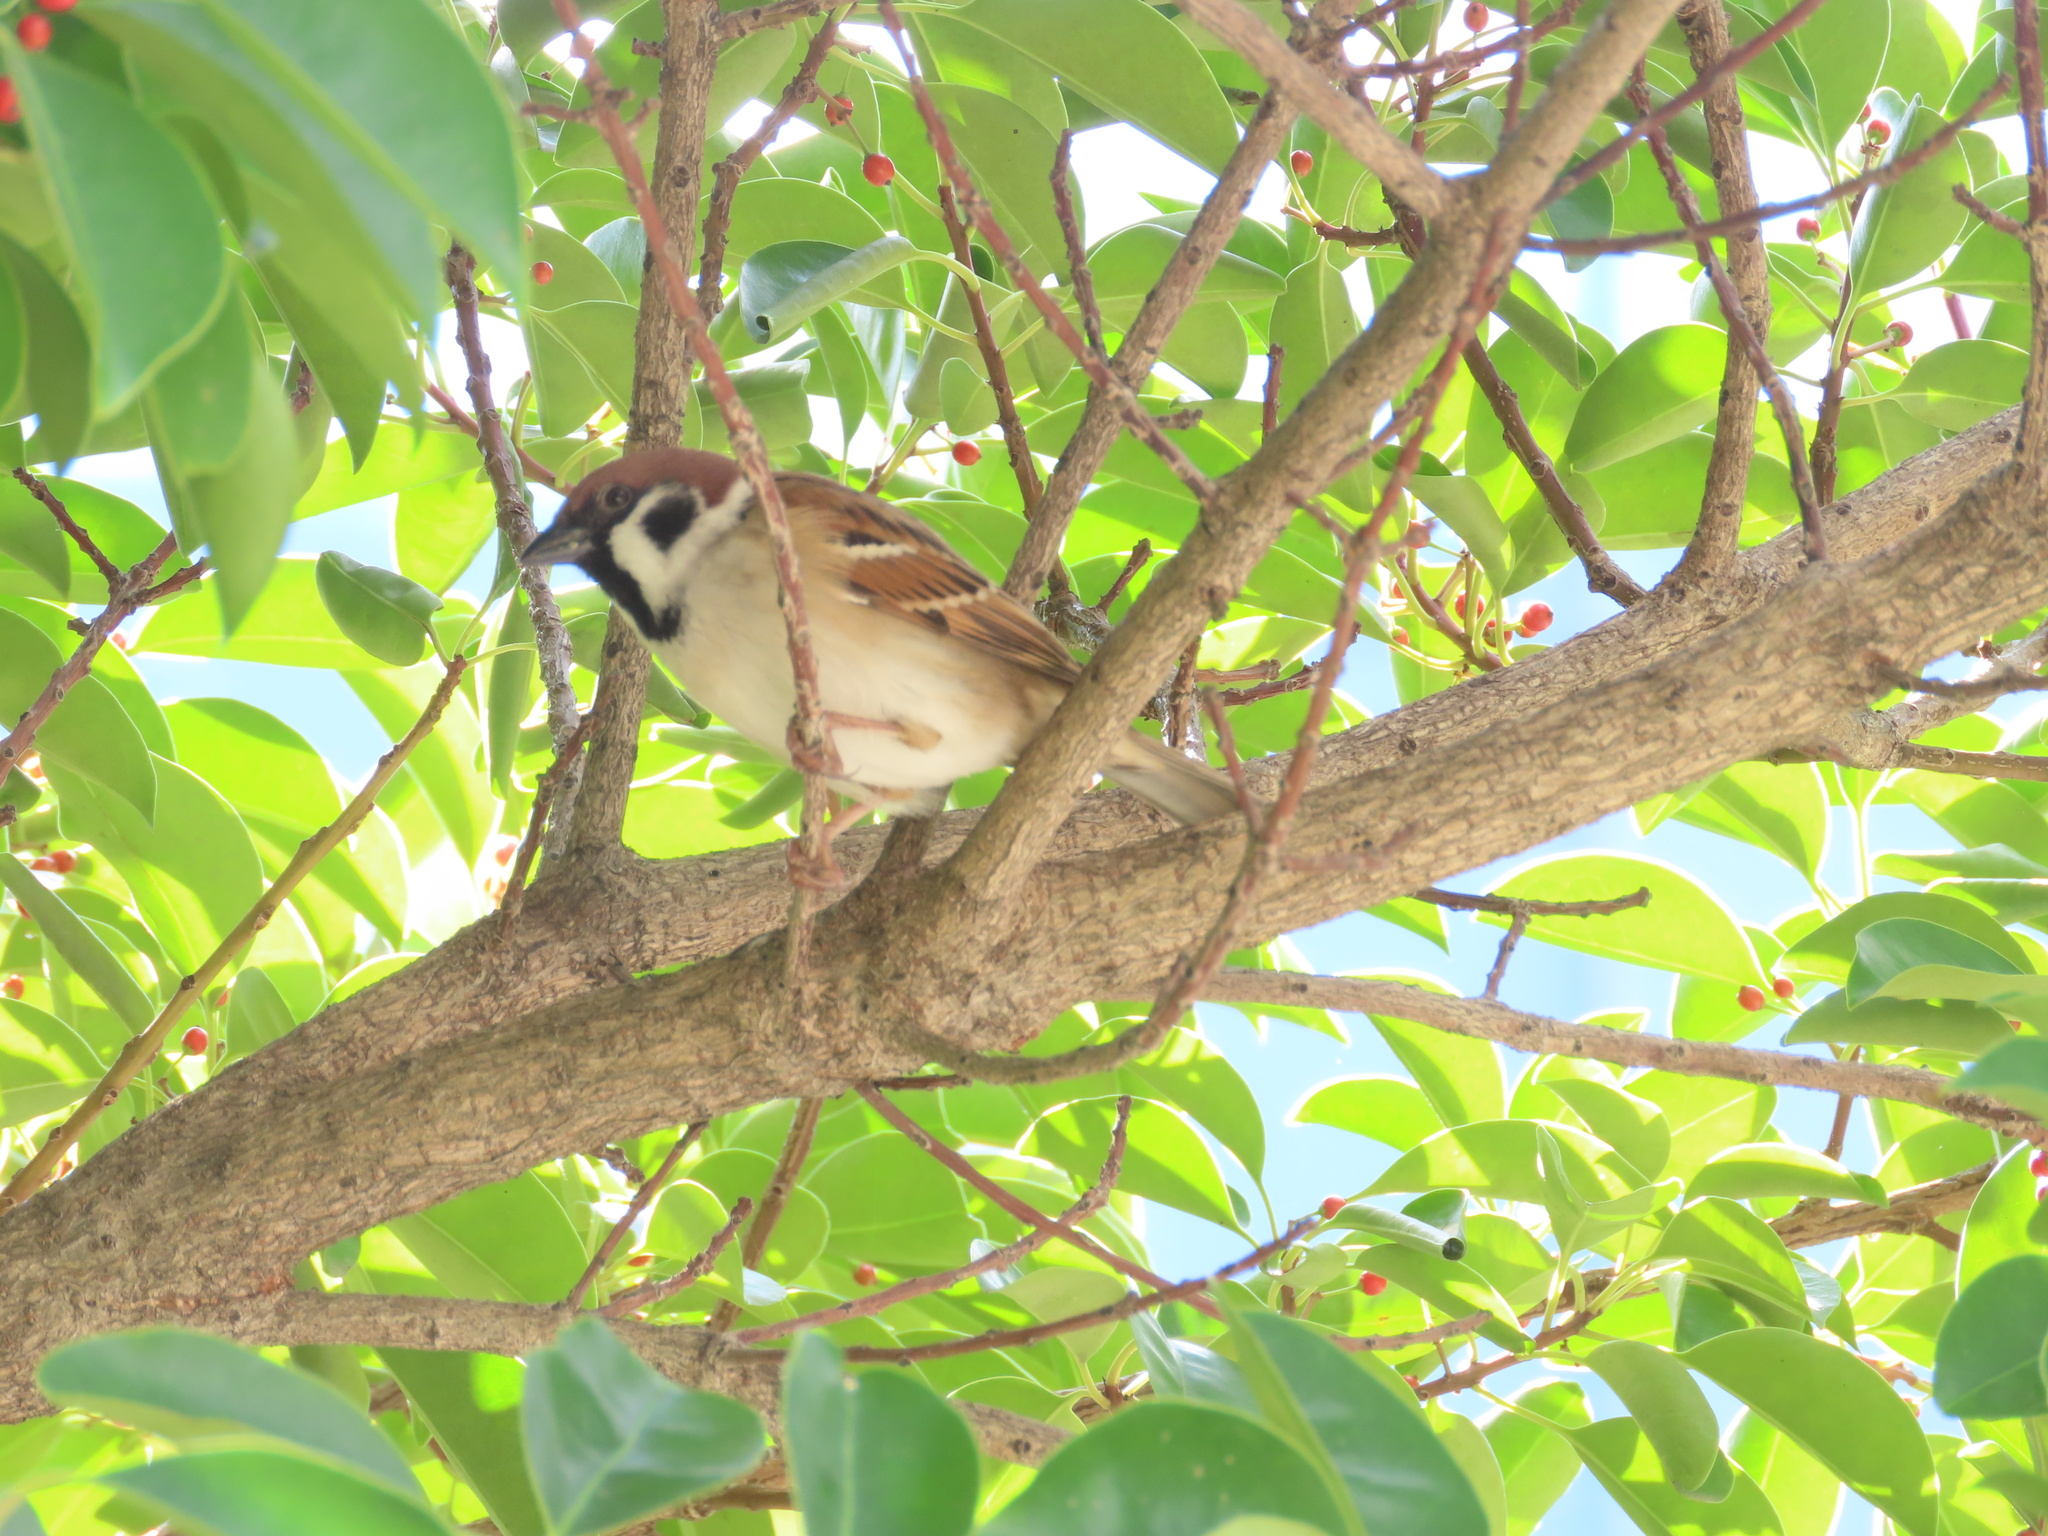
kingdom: Animalia
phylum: Chordata
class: Aves
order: Passeriformes
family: Passeridae
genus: Passer
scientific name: Passer montanus
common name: Eurasian tree sparrow
